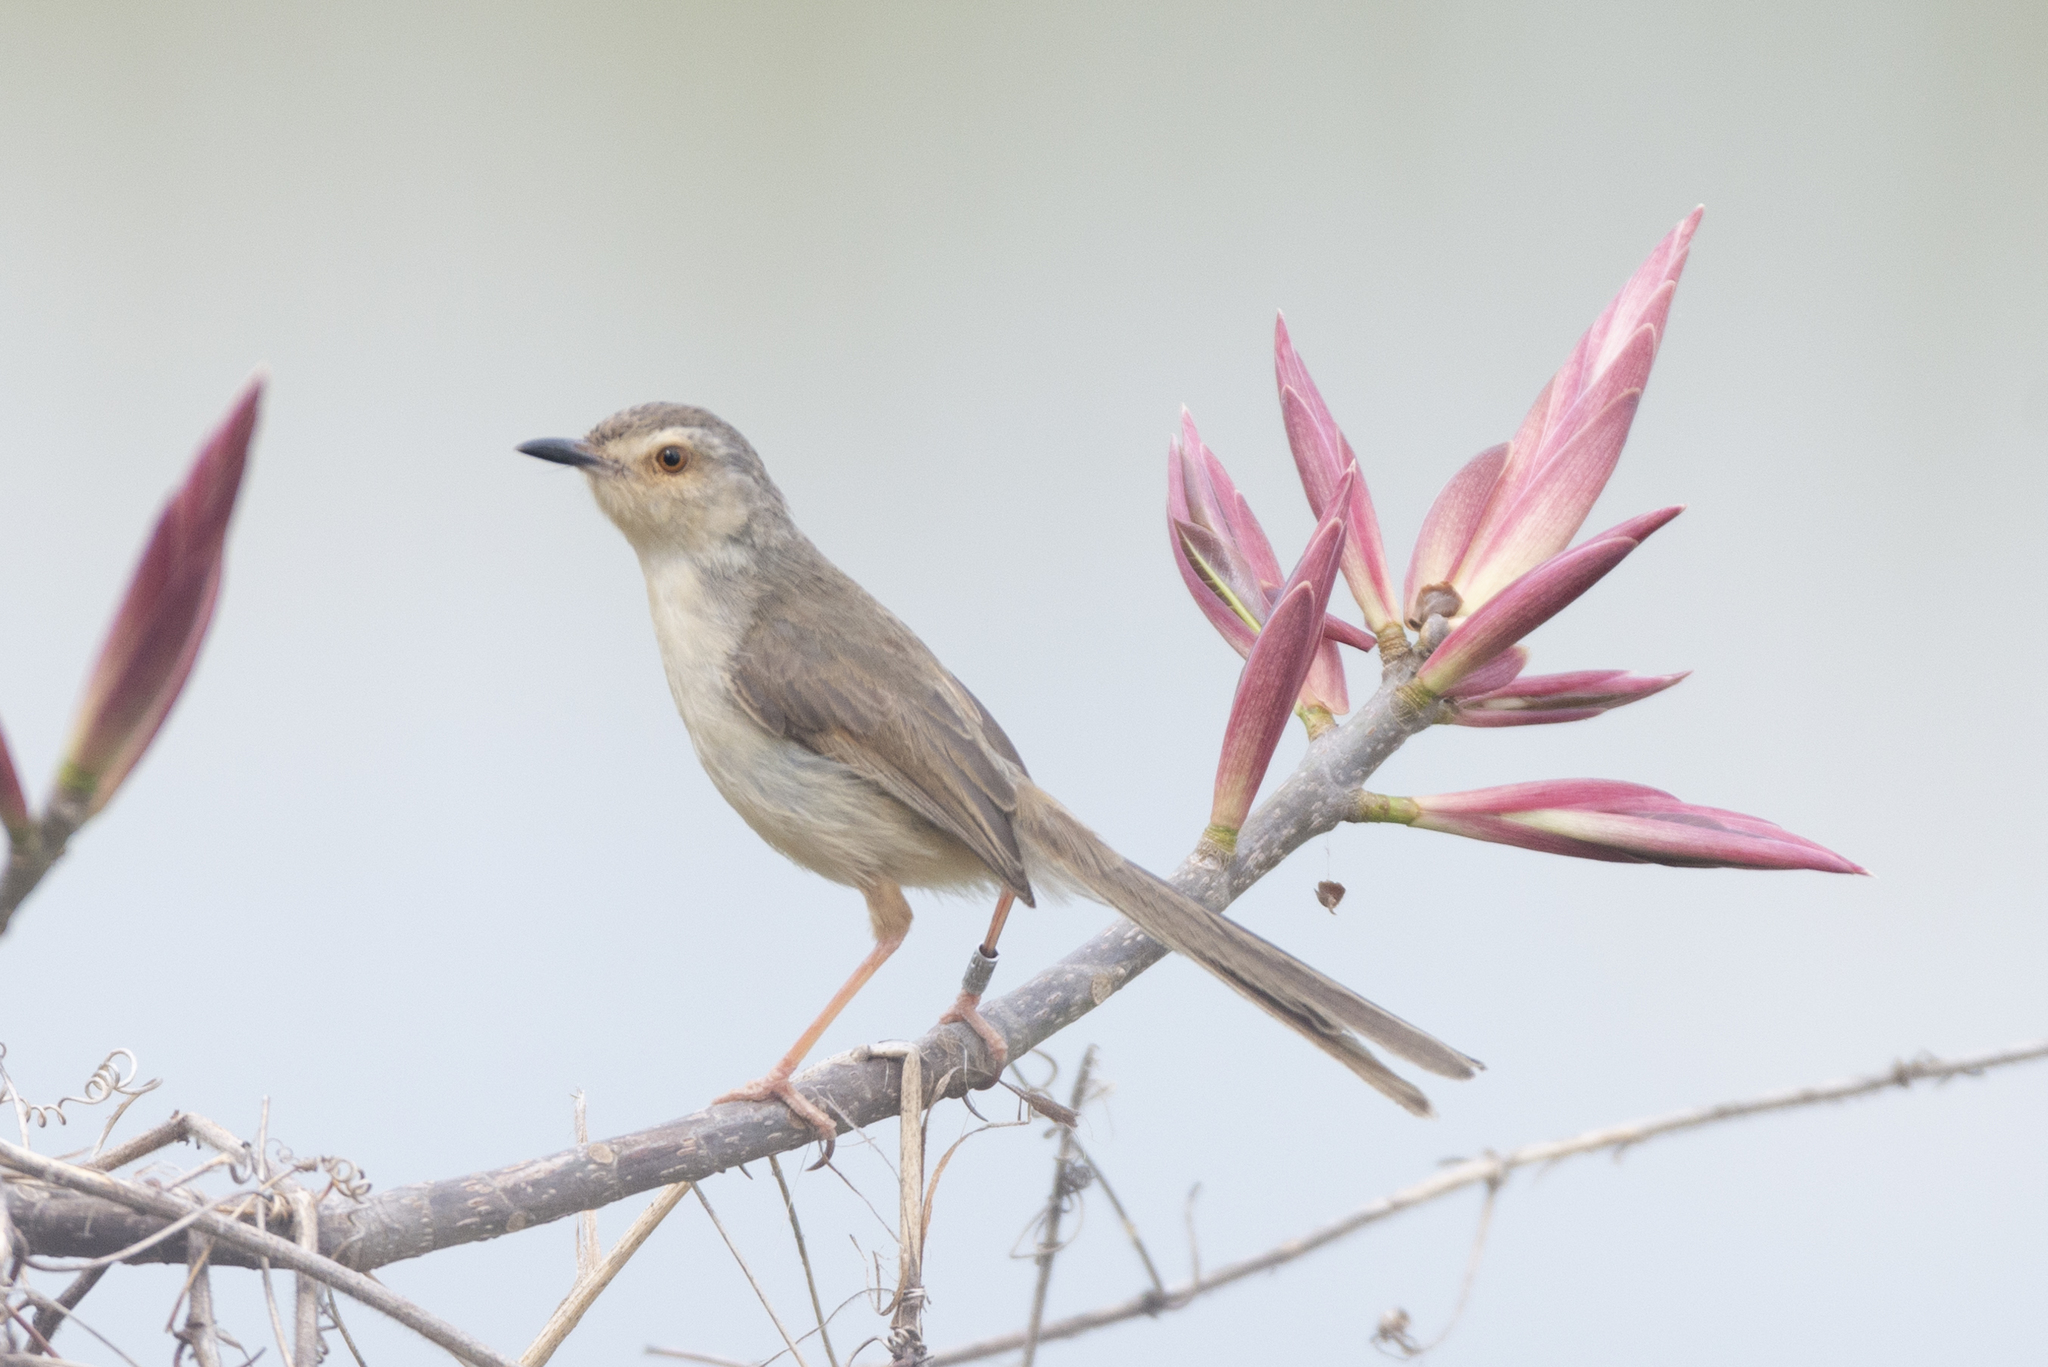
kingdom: Animalia
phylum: Chordata
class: Aves
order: Passeriformes
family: Cisticolidae
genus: Prinia
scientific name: Prinia inornata
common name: Plain prinia
